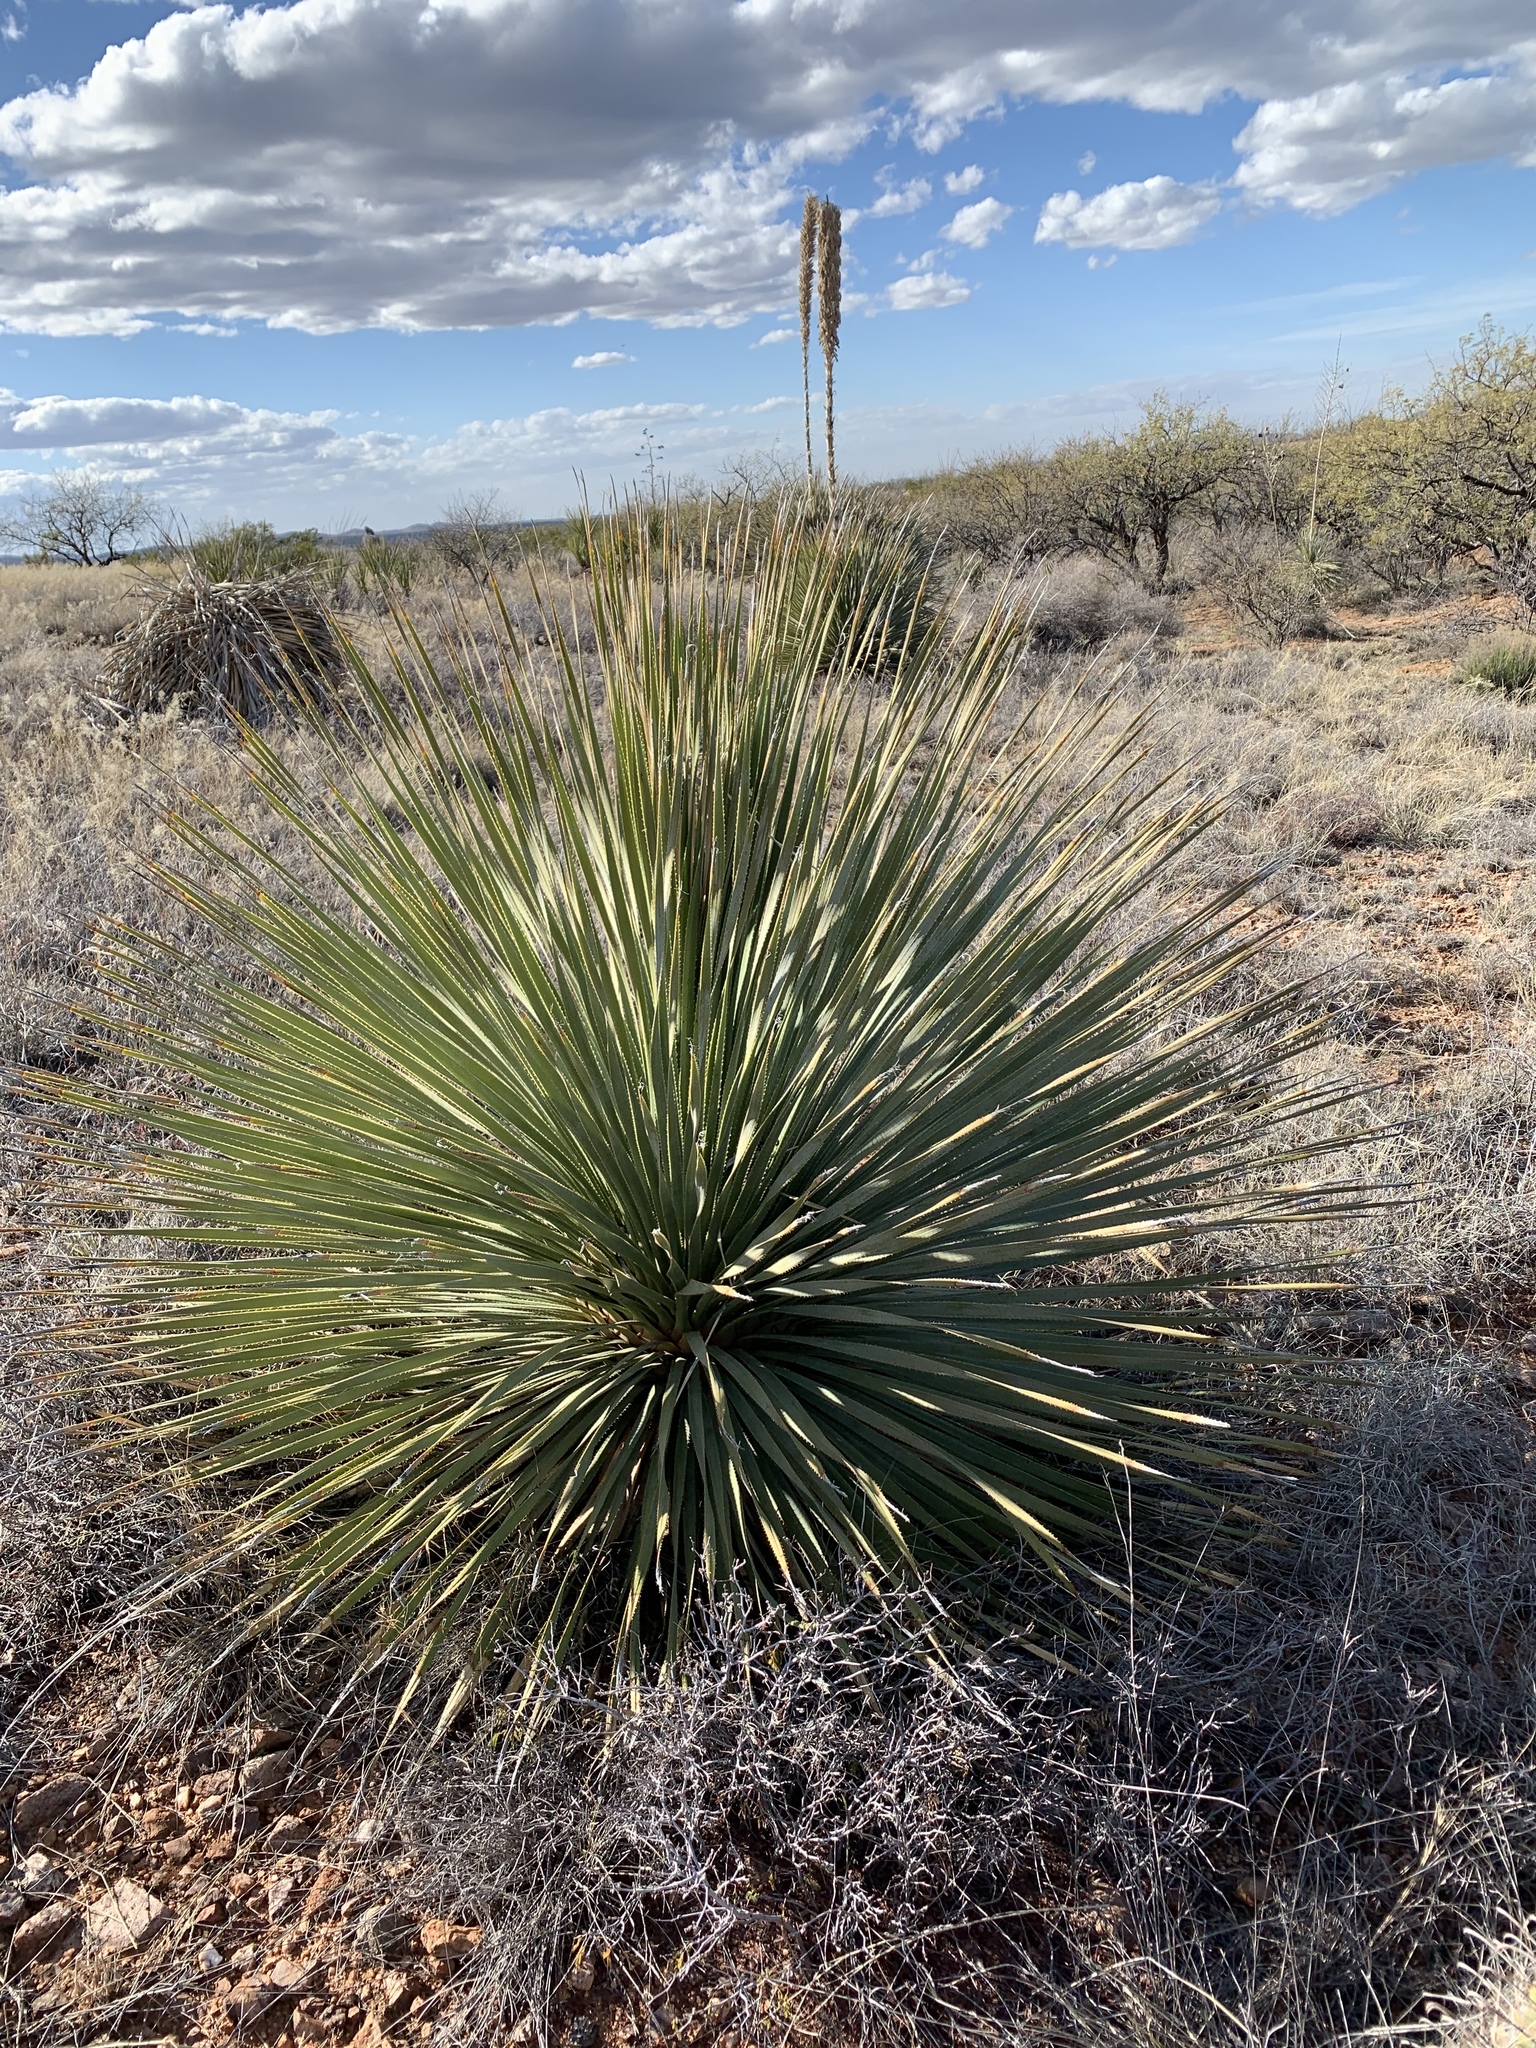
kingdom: Plantae
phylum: Tracheophyta
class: Liliopsida
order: Asparagales
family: Asparagaceae
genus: Dasylirion
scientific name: Dasylirion wheeleri
